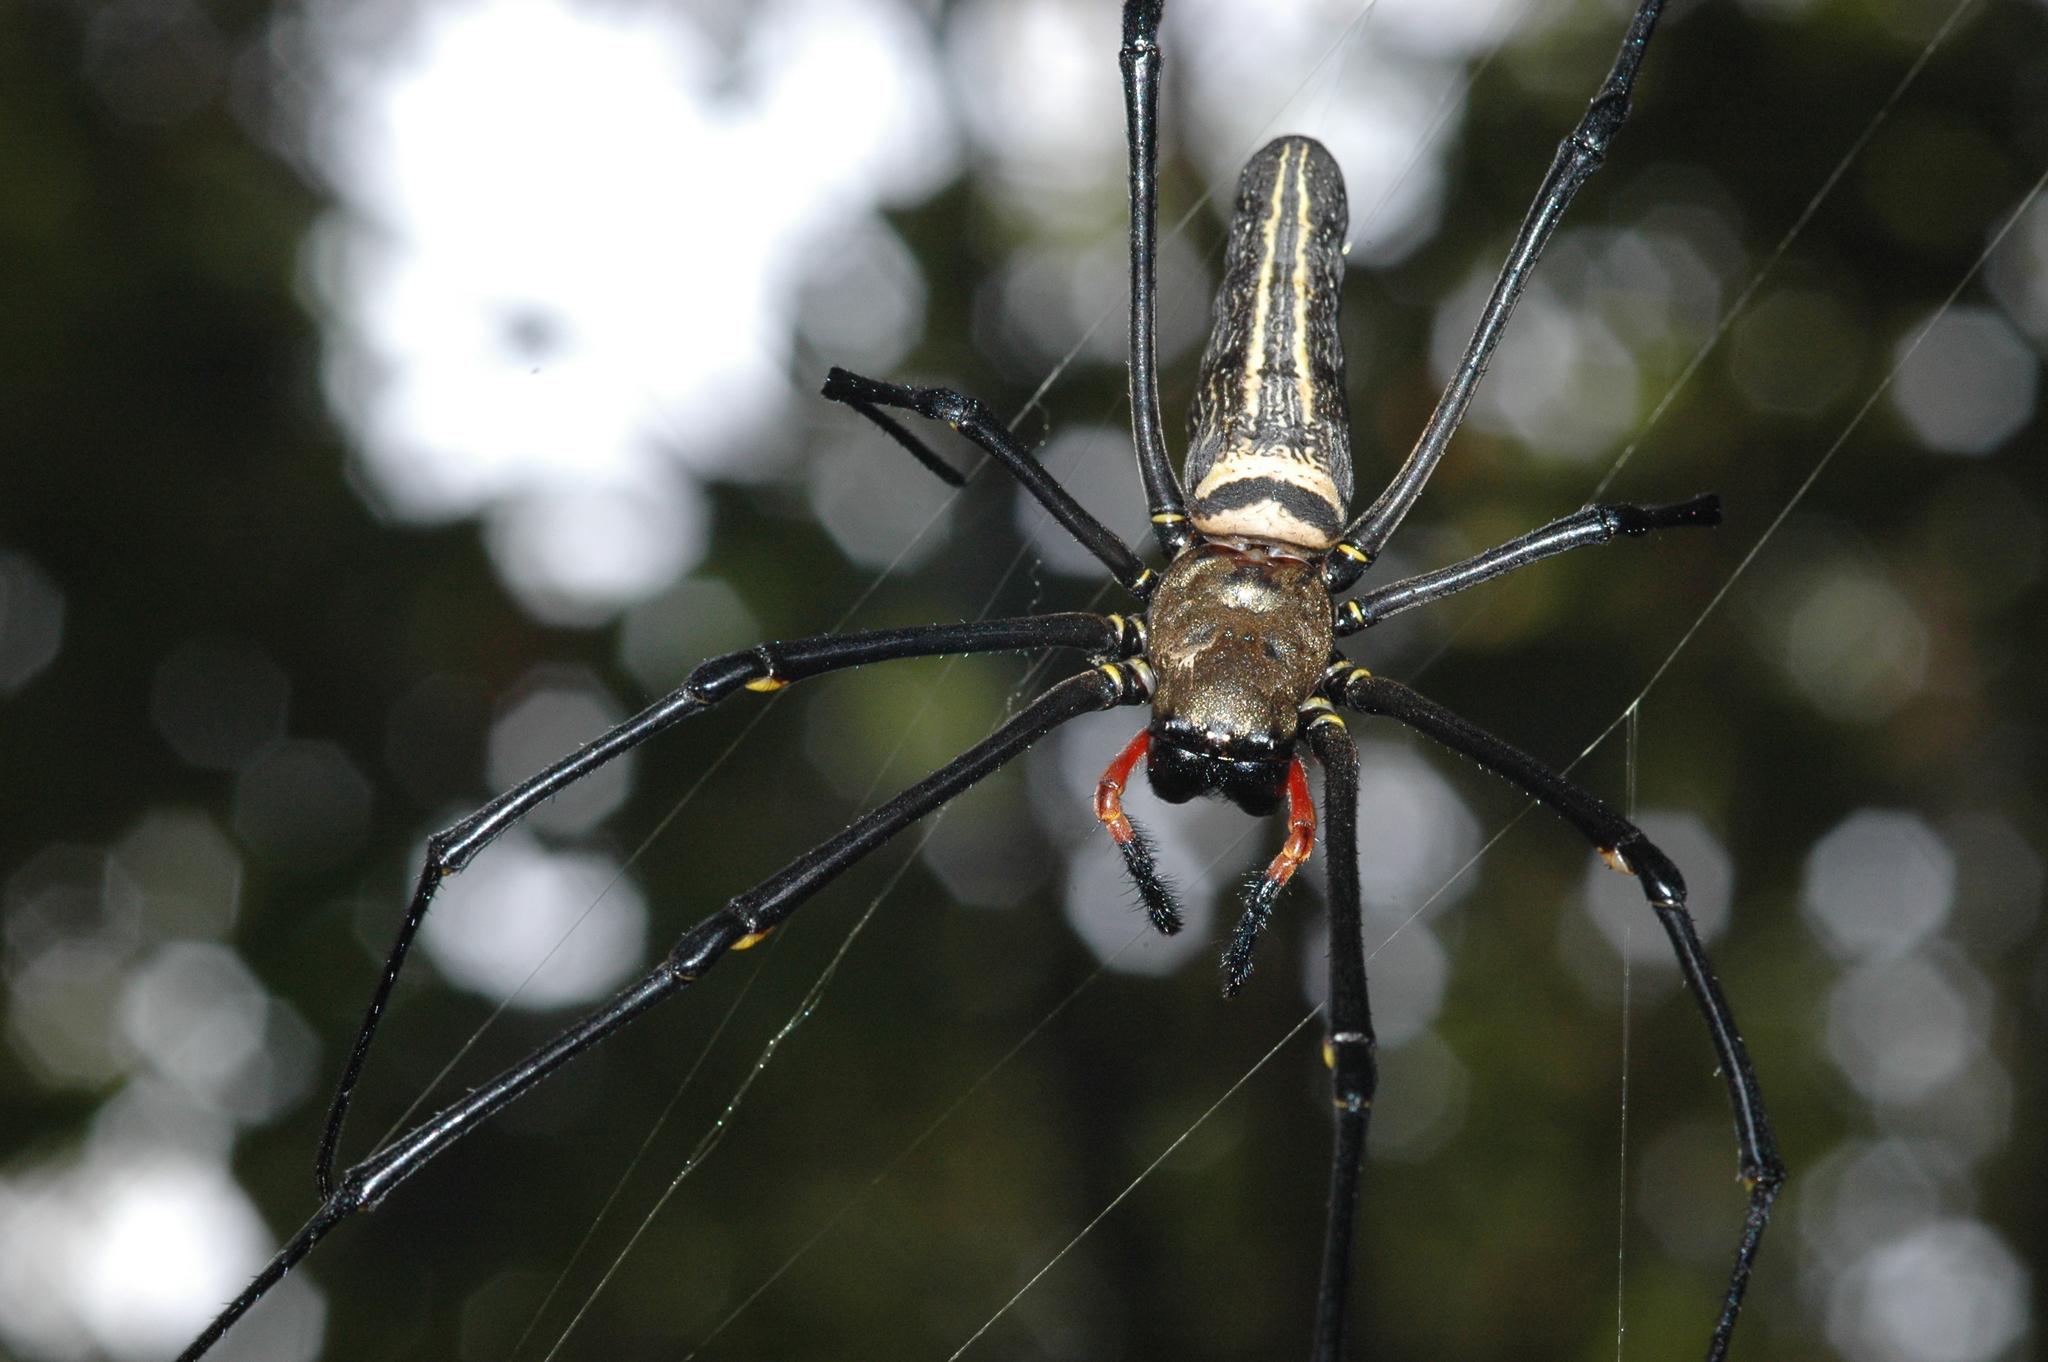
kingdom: Animalia
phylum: Arthropoda
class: Arachnida
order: Araneae
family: Araneidae
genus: Nephila
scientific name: Nephila pilipes
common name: Giant golden orb weaver
